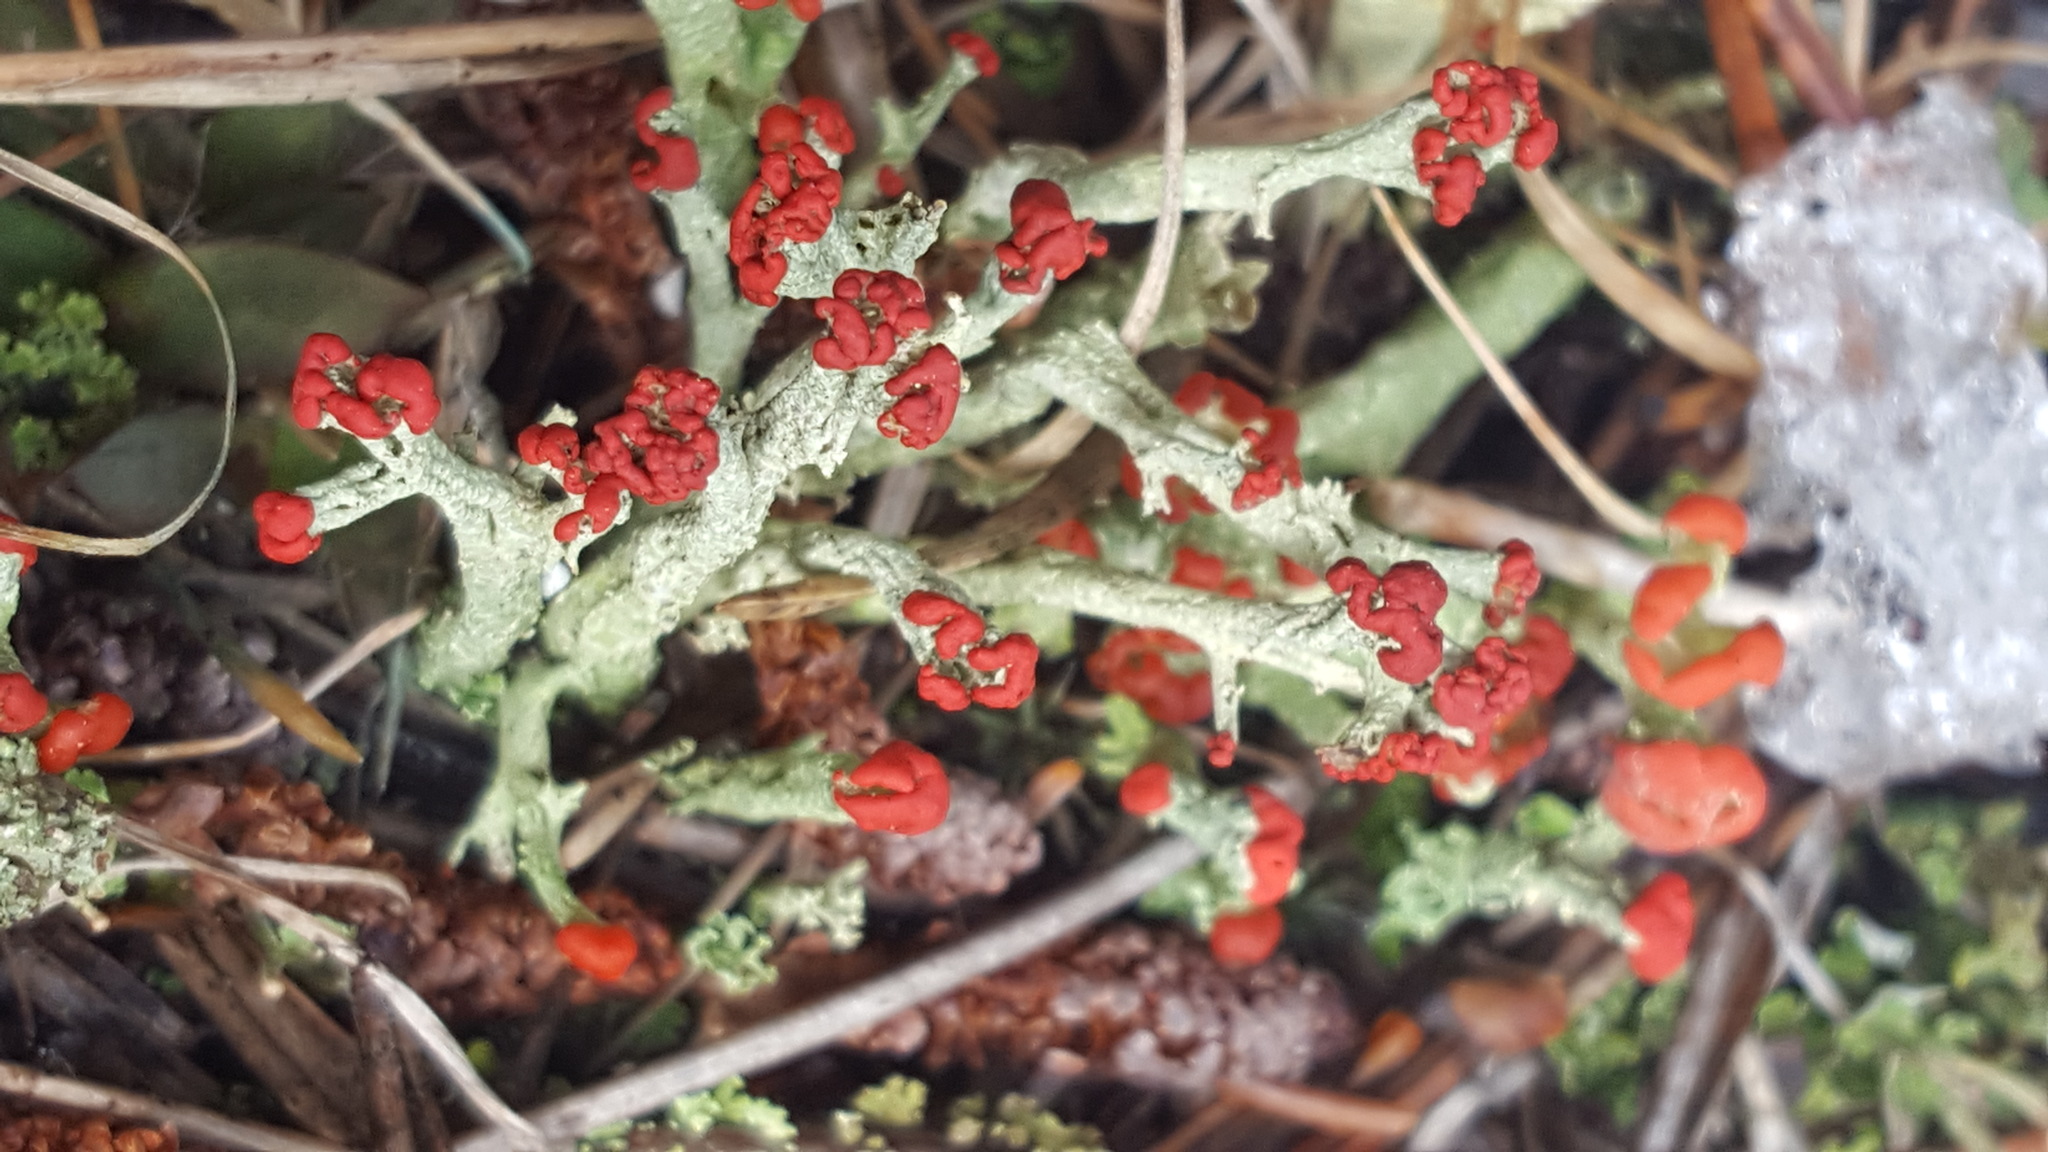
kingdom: Fungi
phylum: Ascomycota
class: Lecanoromycetes
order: Lecanorales
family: Cladoniaceae
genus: Cladonia
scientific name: Cladonia cristatella
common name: British soldier lichen
